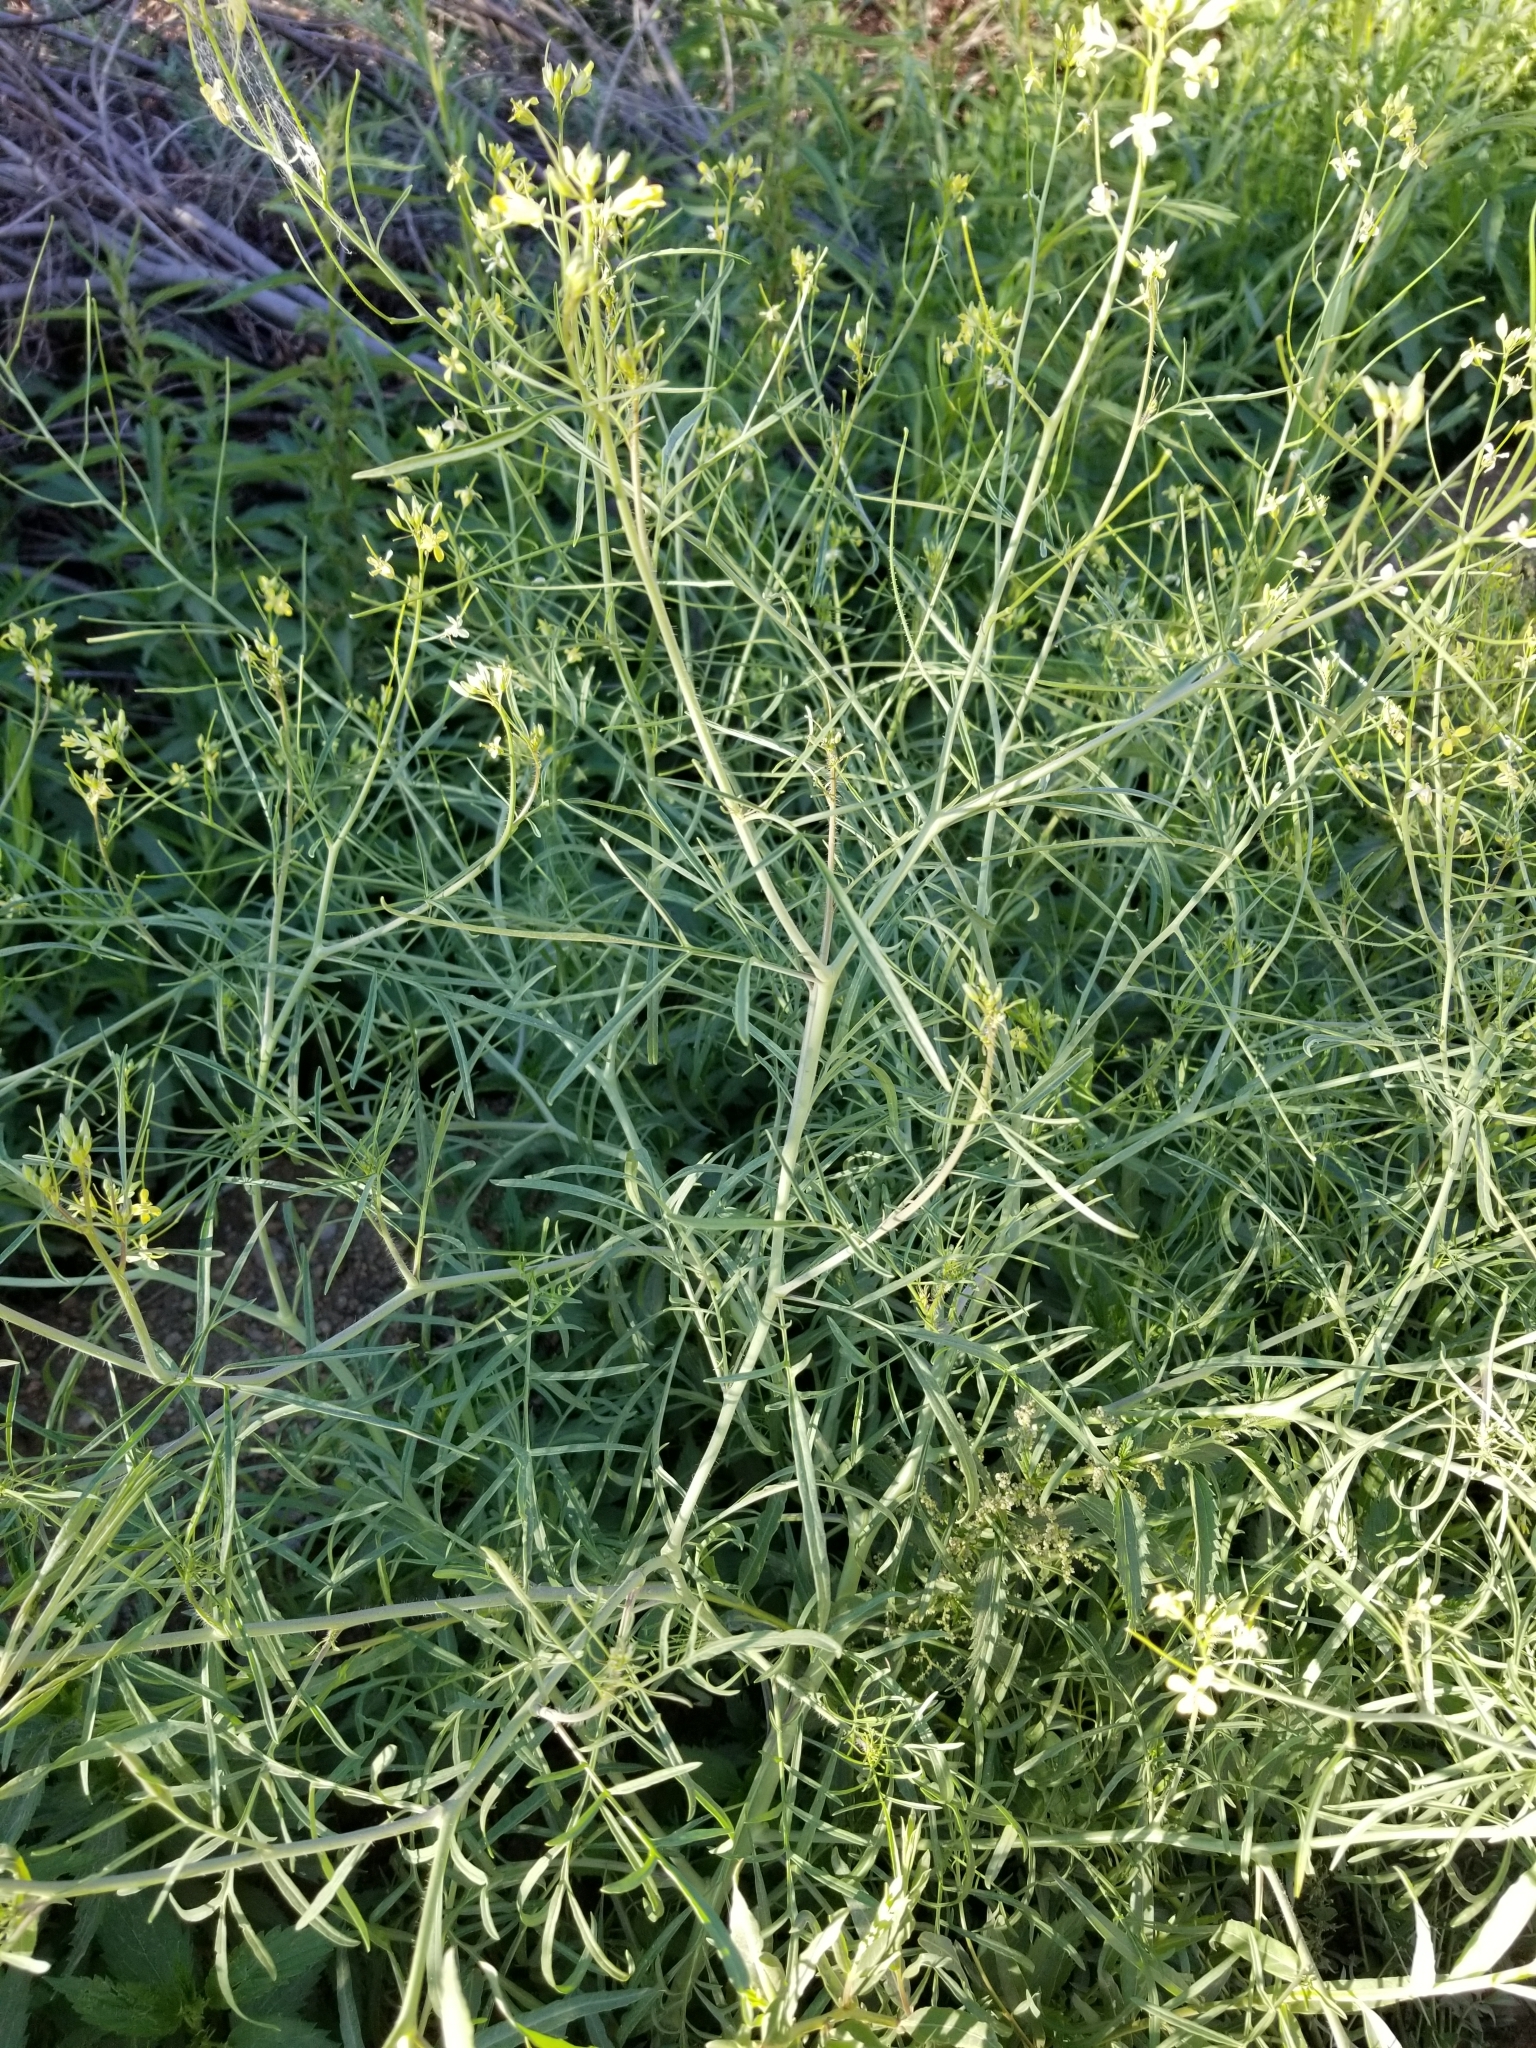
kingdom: Plantae
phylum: Tracheophyta
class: Magnoliopsida
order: Brassicales
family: Brassicaceae
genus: Sisymbrium
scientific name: Sisymbrium altissimum
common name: Tall rocket
